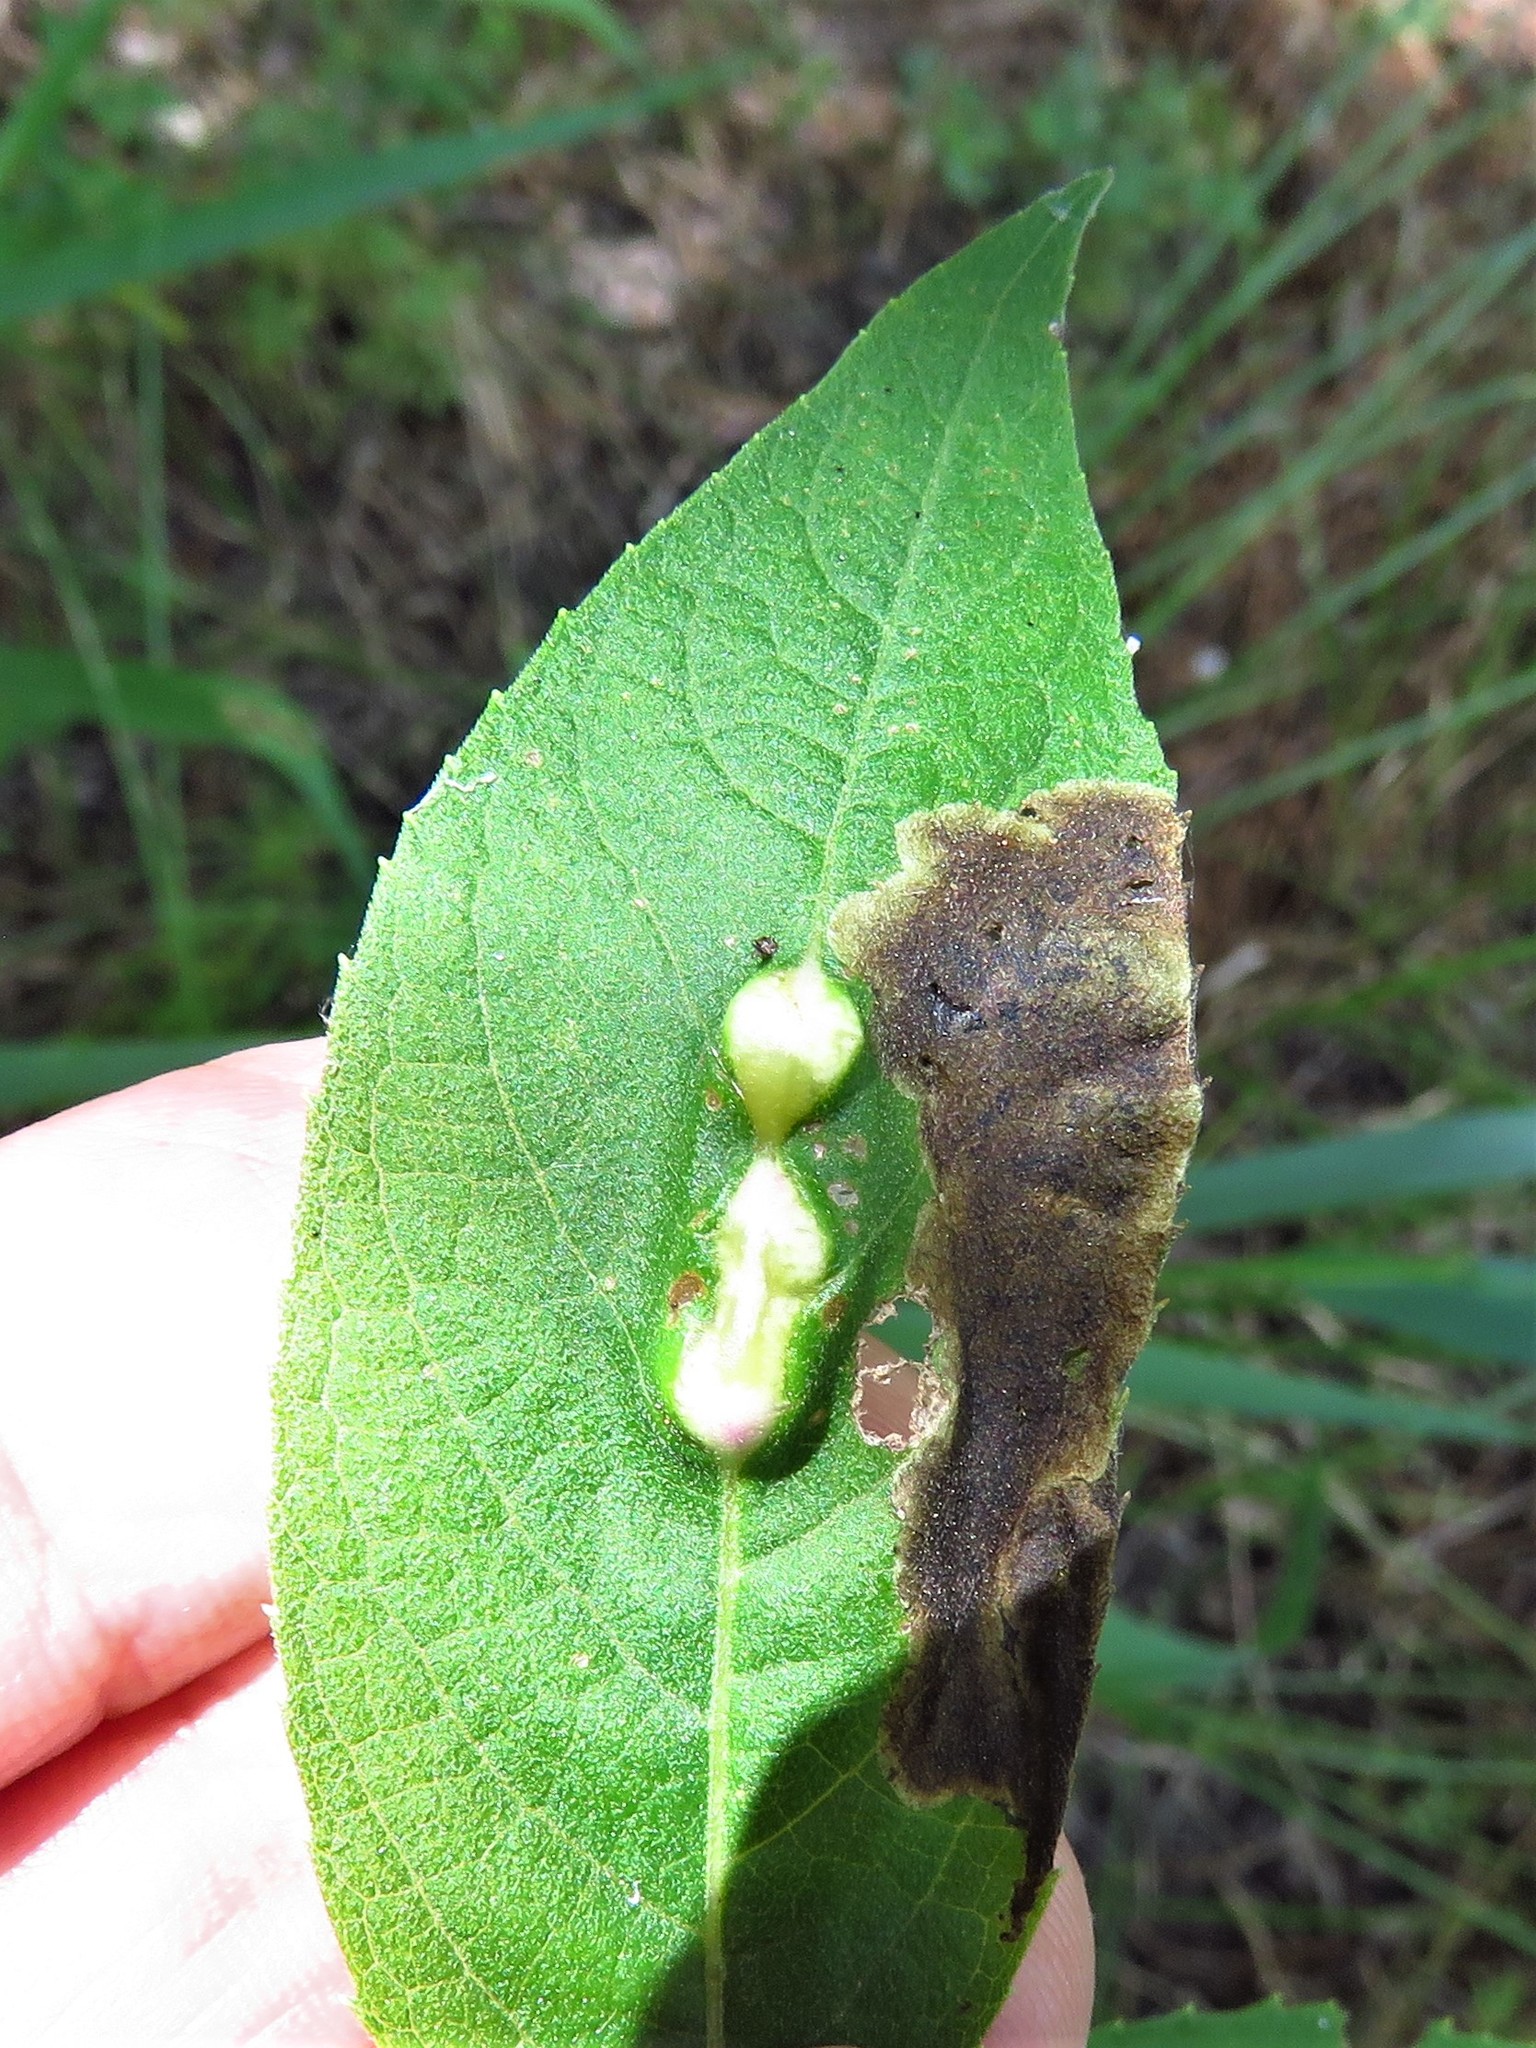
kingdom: Animalia
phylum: Arthropoda
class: Insecta
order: Diptera
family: Cecidomyiidae
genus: Neolasioptera
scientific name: Neolasioptera vernoniae
